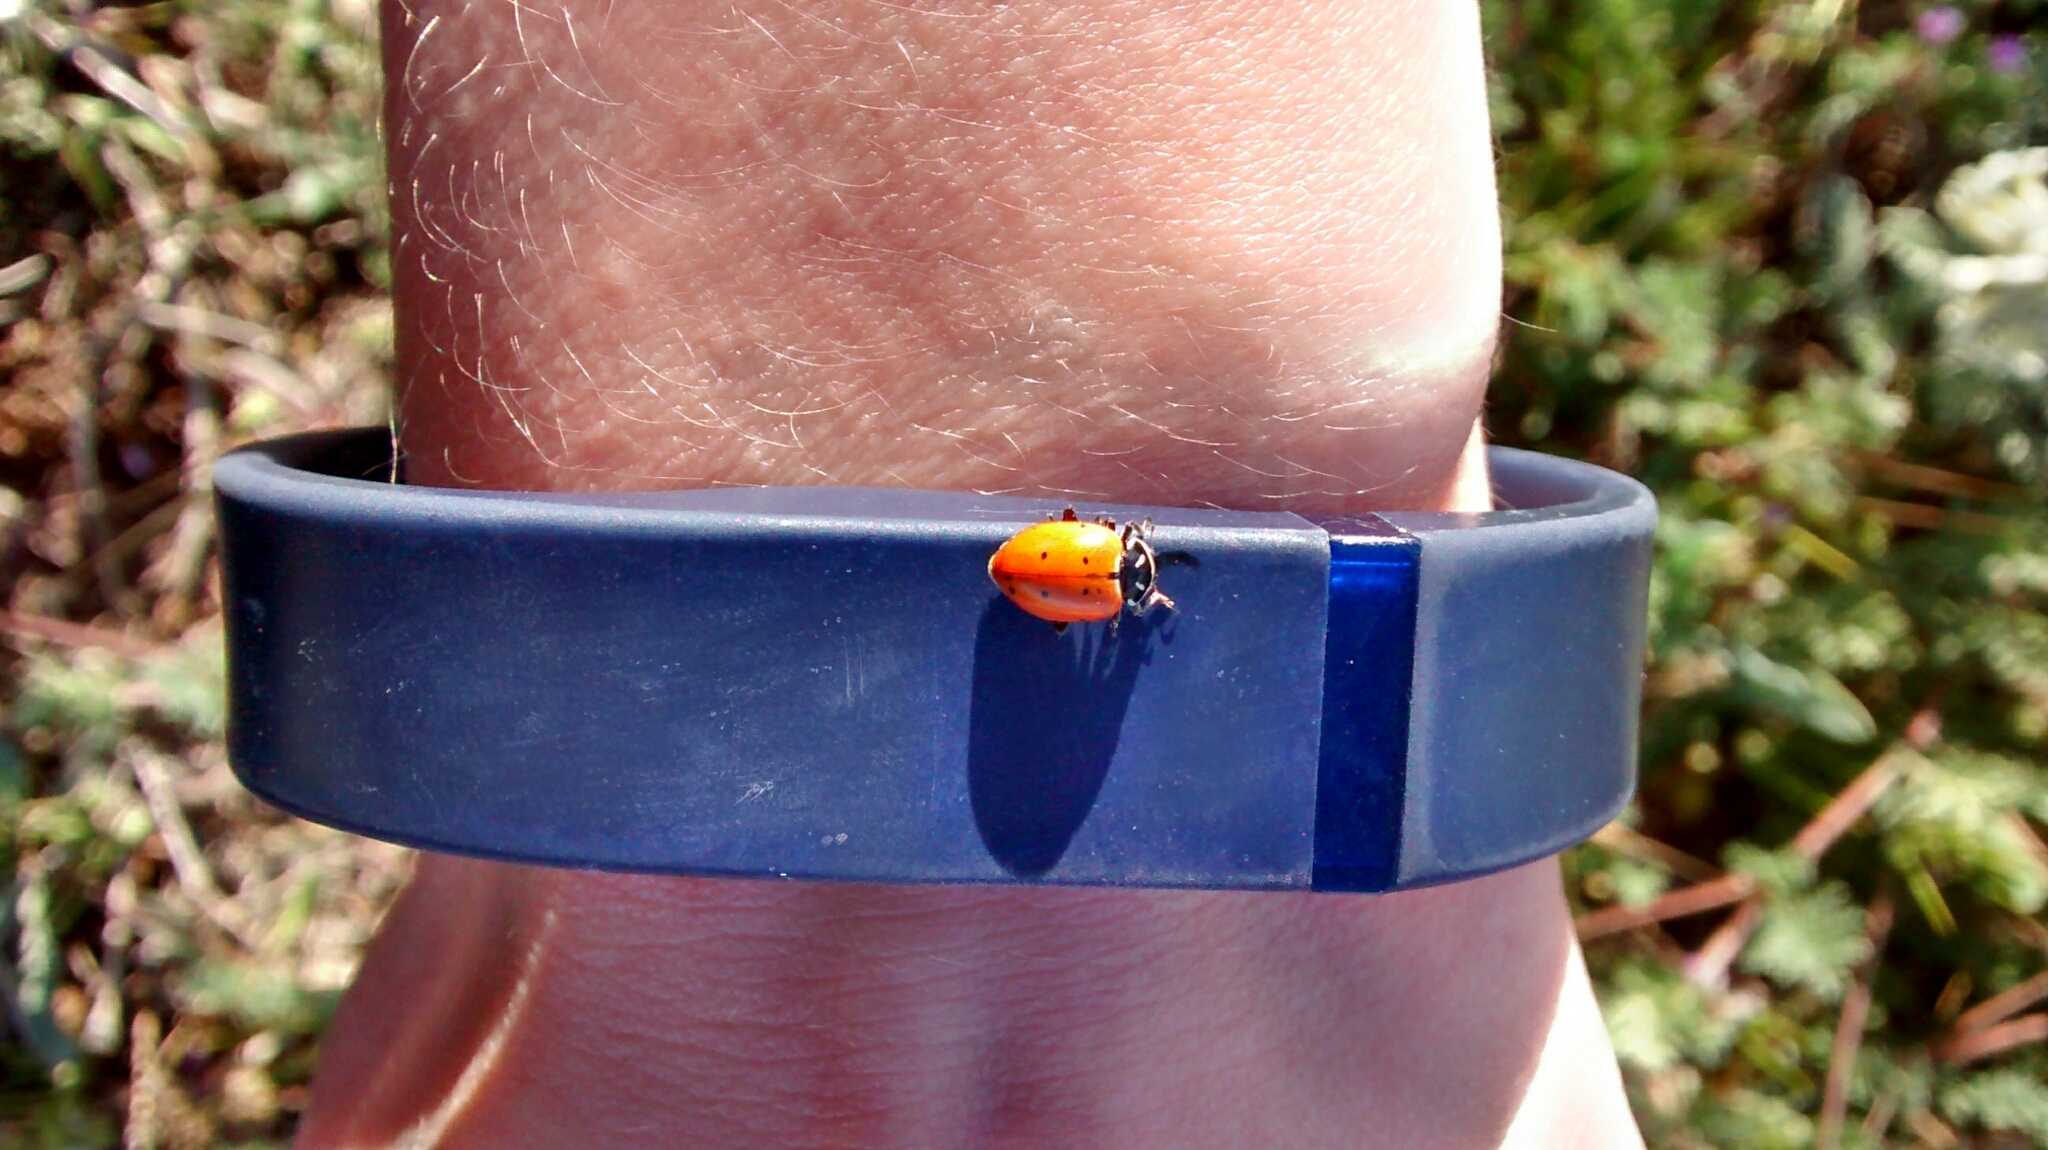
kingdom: Animalia
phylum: Arthropoda
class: Insecta
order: Coleoptera
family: Coccinellidae
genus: Hippodamia
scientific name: Hippodamia convergens
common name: Convergent lady beetle
